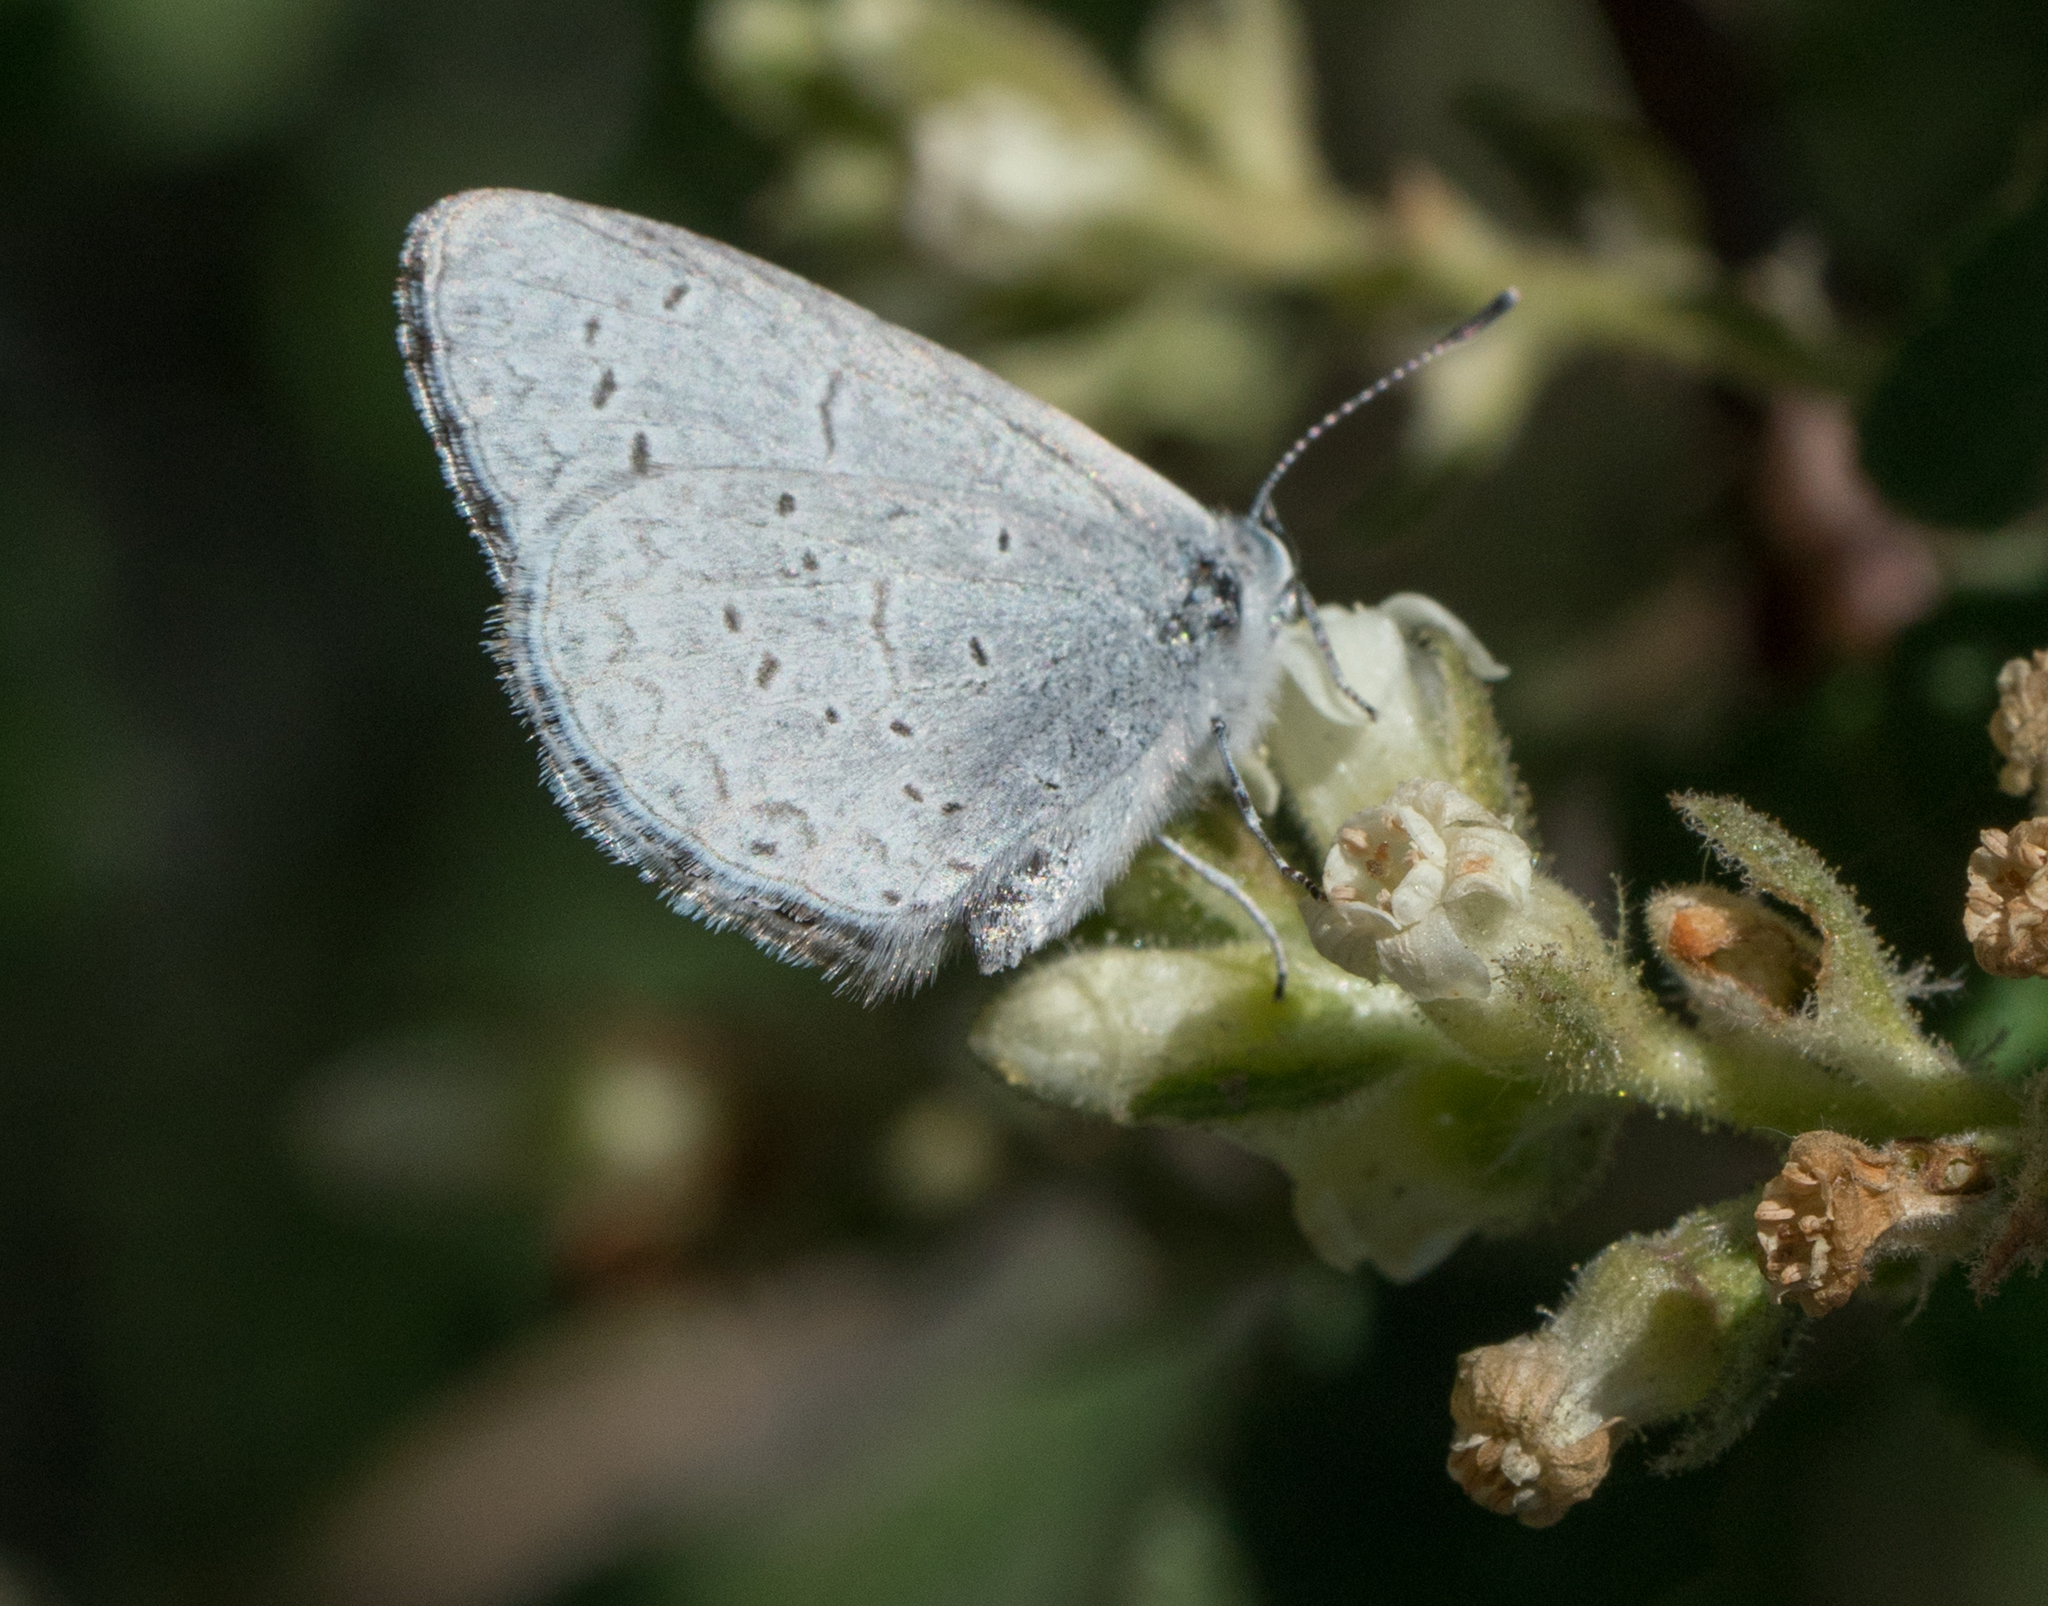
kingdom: Animalia
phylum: Arthropoda
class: Insecta
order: Lepidoptera
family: Lycaenidae
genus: Celastrina
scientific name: Celastrina ladon
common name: Spring azure
